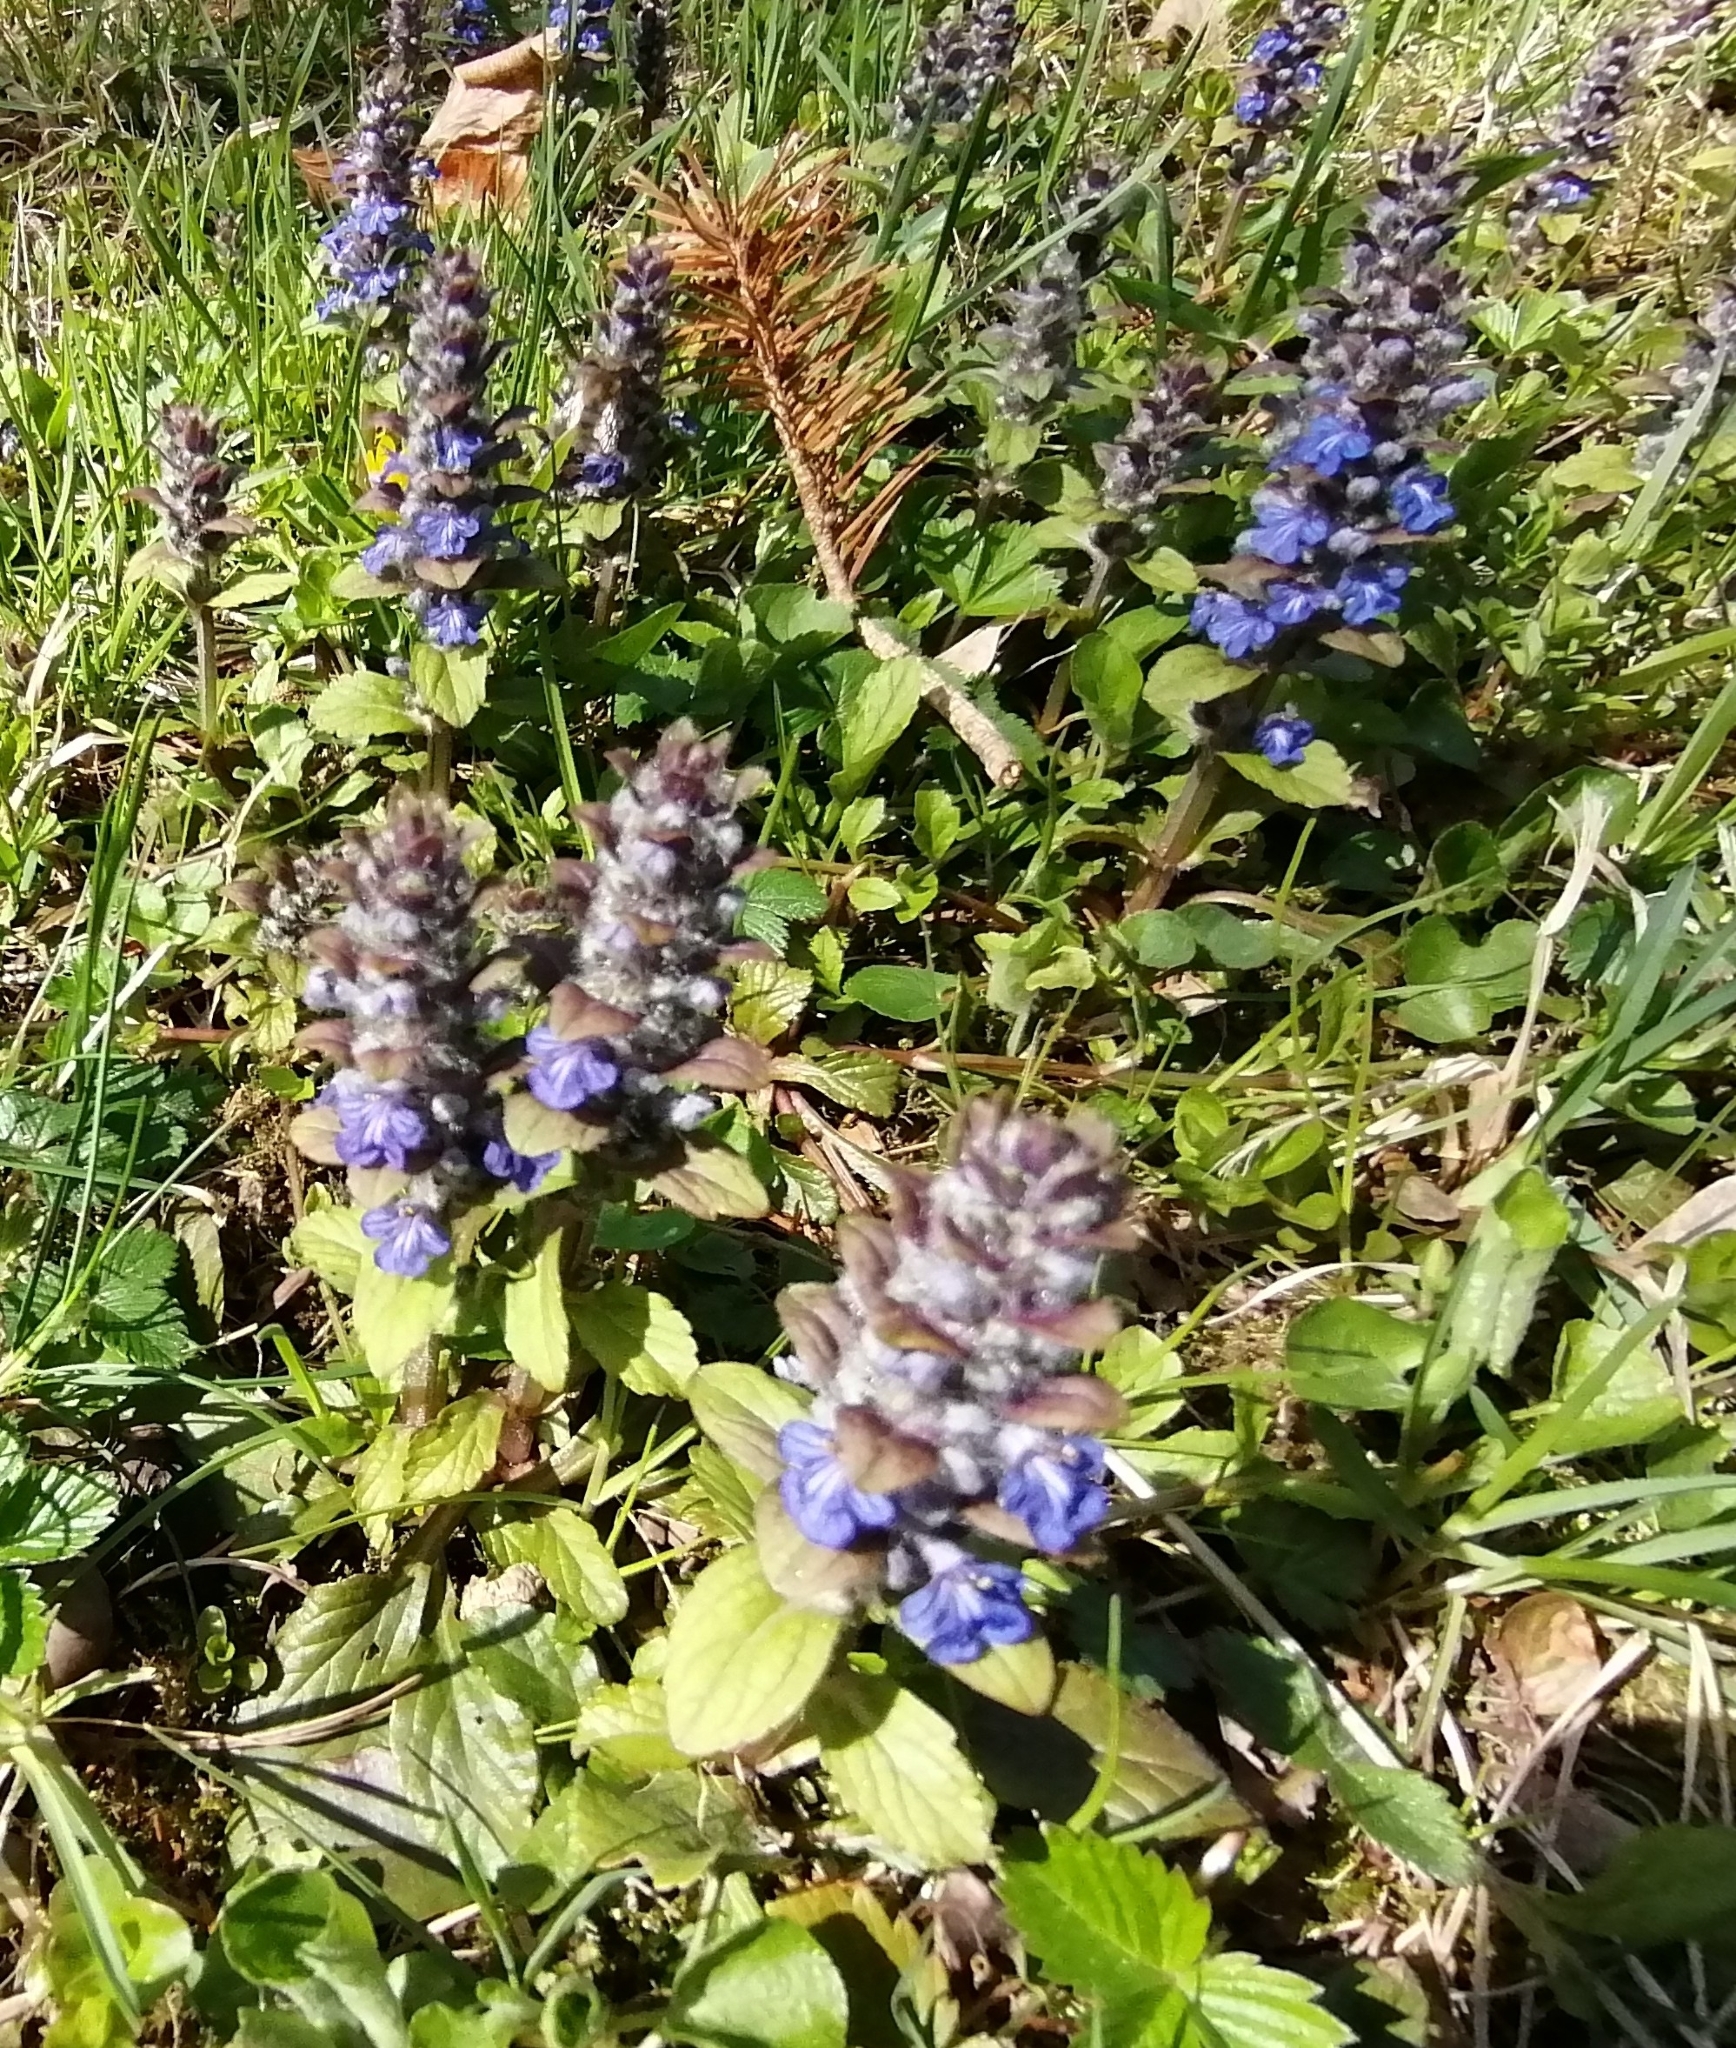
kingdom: Plantae
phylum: Tracheophyta
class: Magnoliopsida
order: Lamiales
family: Lamiaceae
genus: Ajuga
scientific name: Ajuga reptans
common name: Bugle
